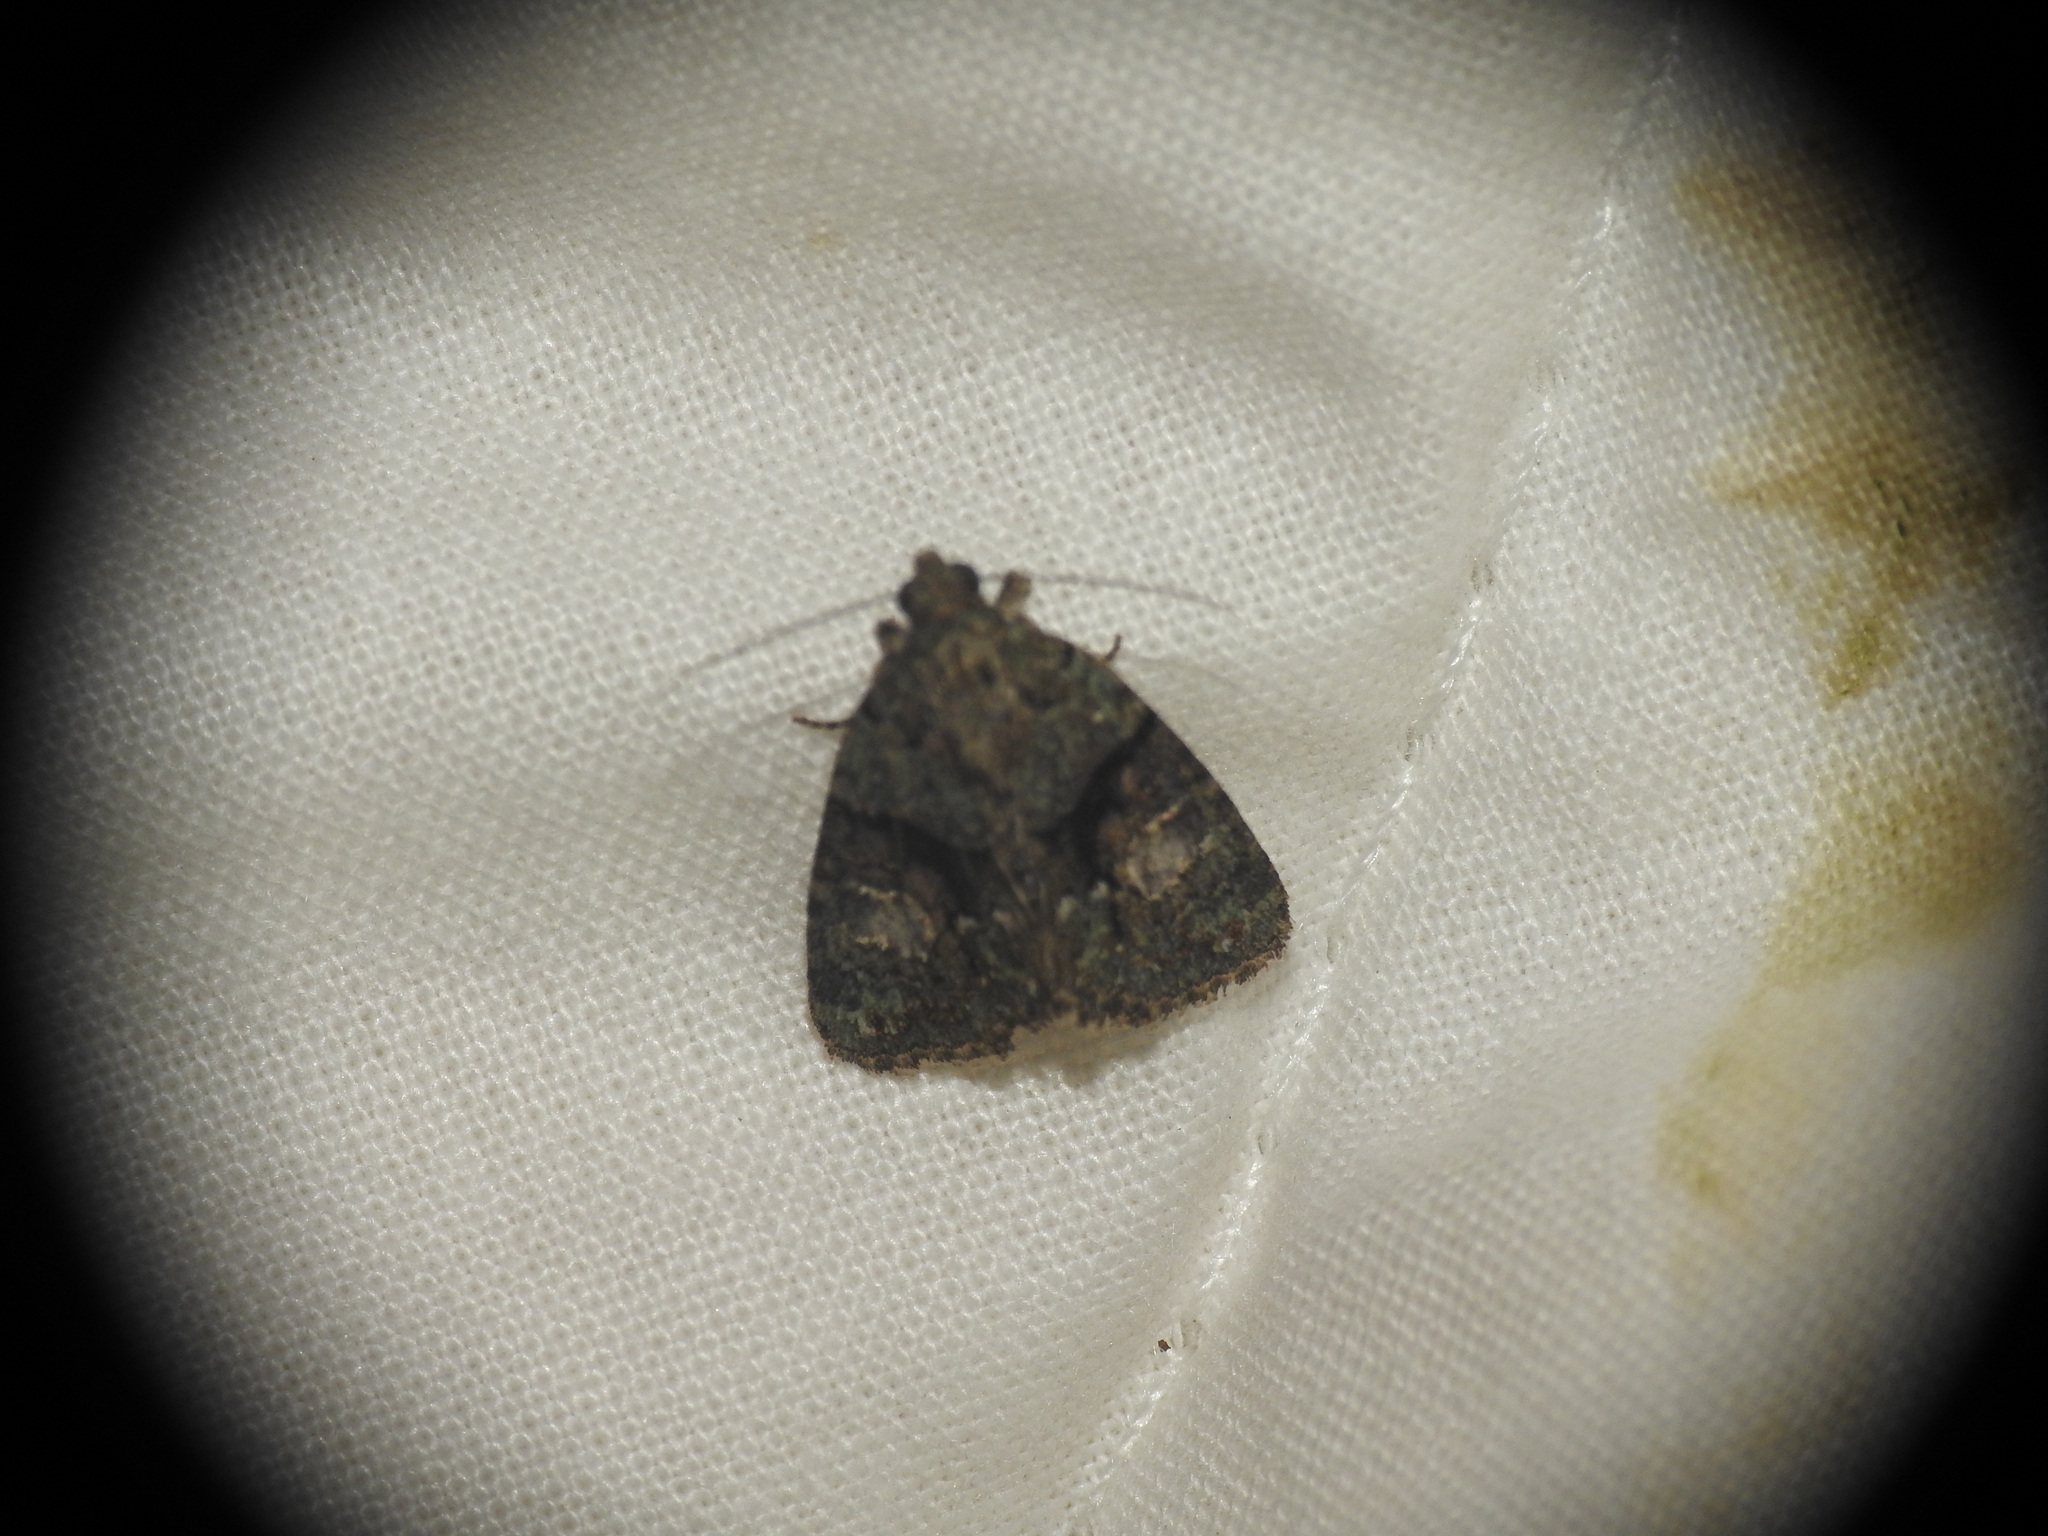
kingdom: Animalia
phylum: Arthropoda
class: Insecta
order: Lepidoptera
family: Noctuidae
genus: Cryphia
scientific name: Cryphia ochsi
